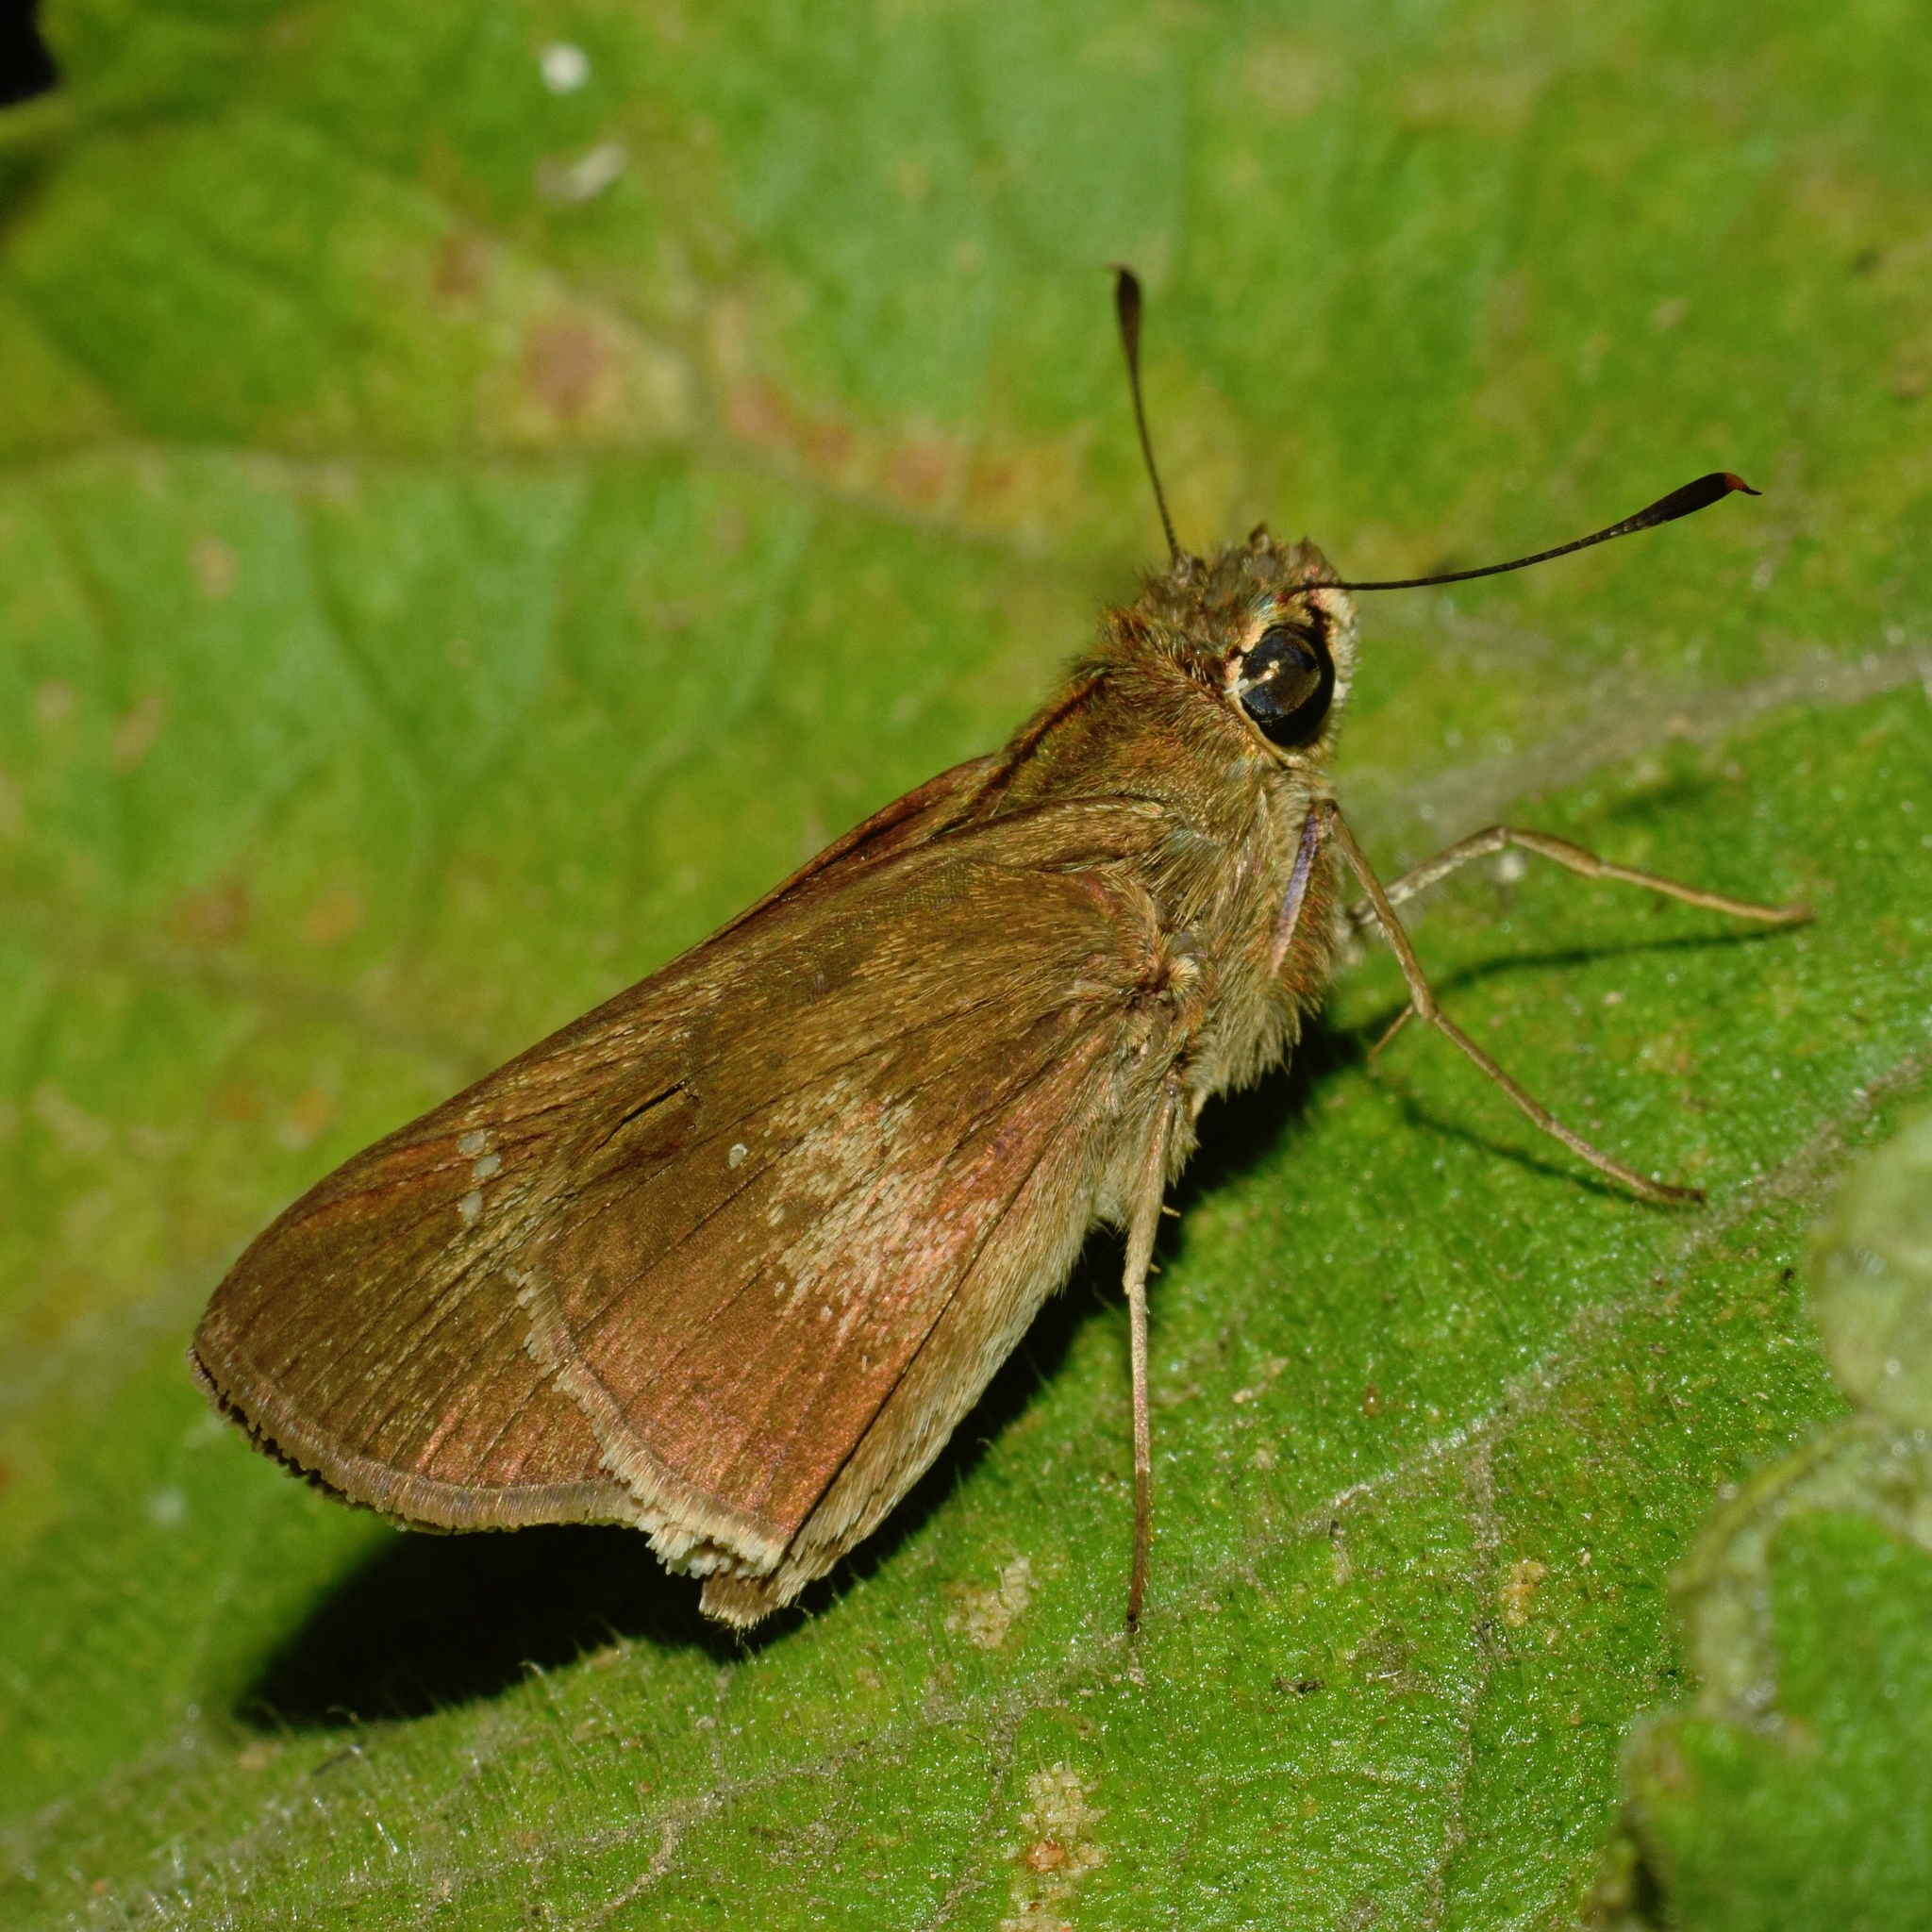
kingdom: Animalia
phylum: Arthropoda
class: Insecta
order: Lepidoptera
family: Hesperiidae
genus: Baoris
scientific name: Baoris fatuellus
